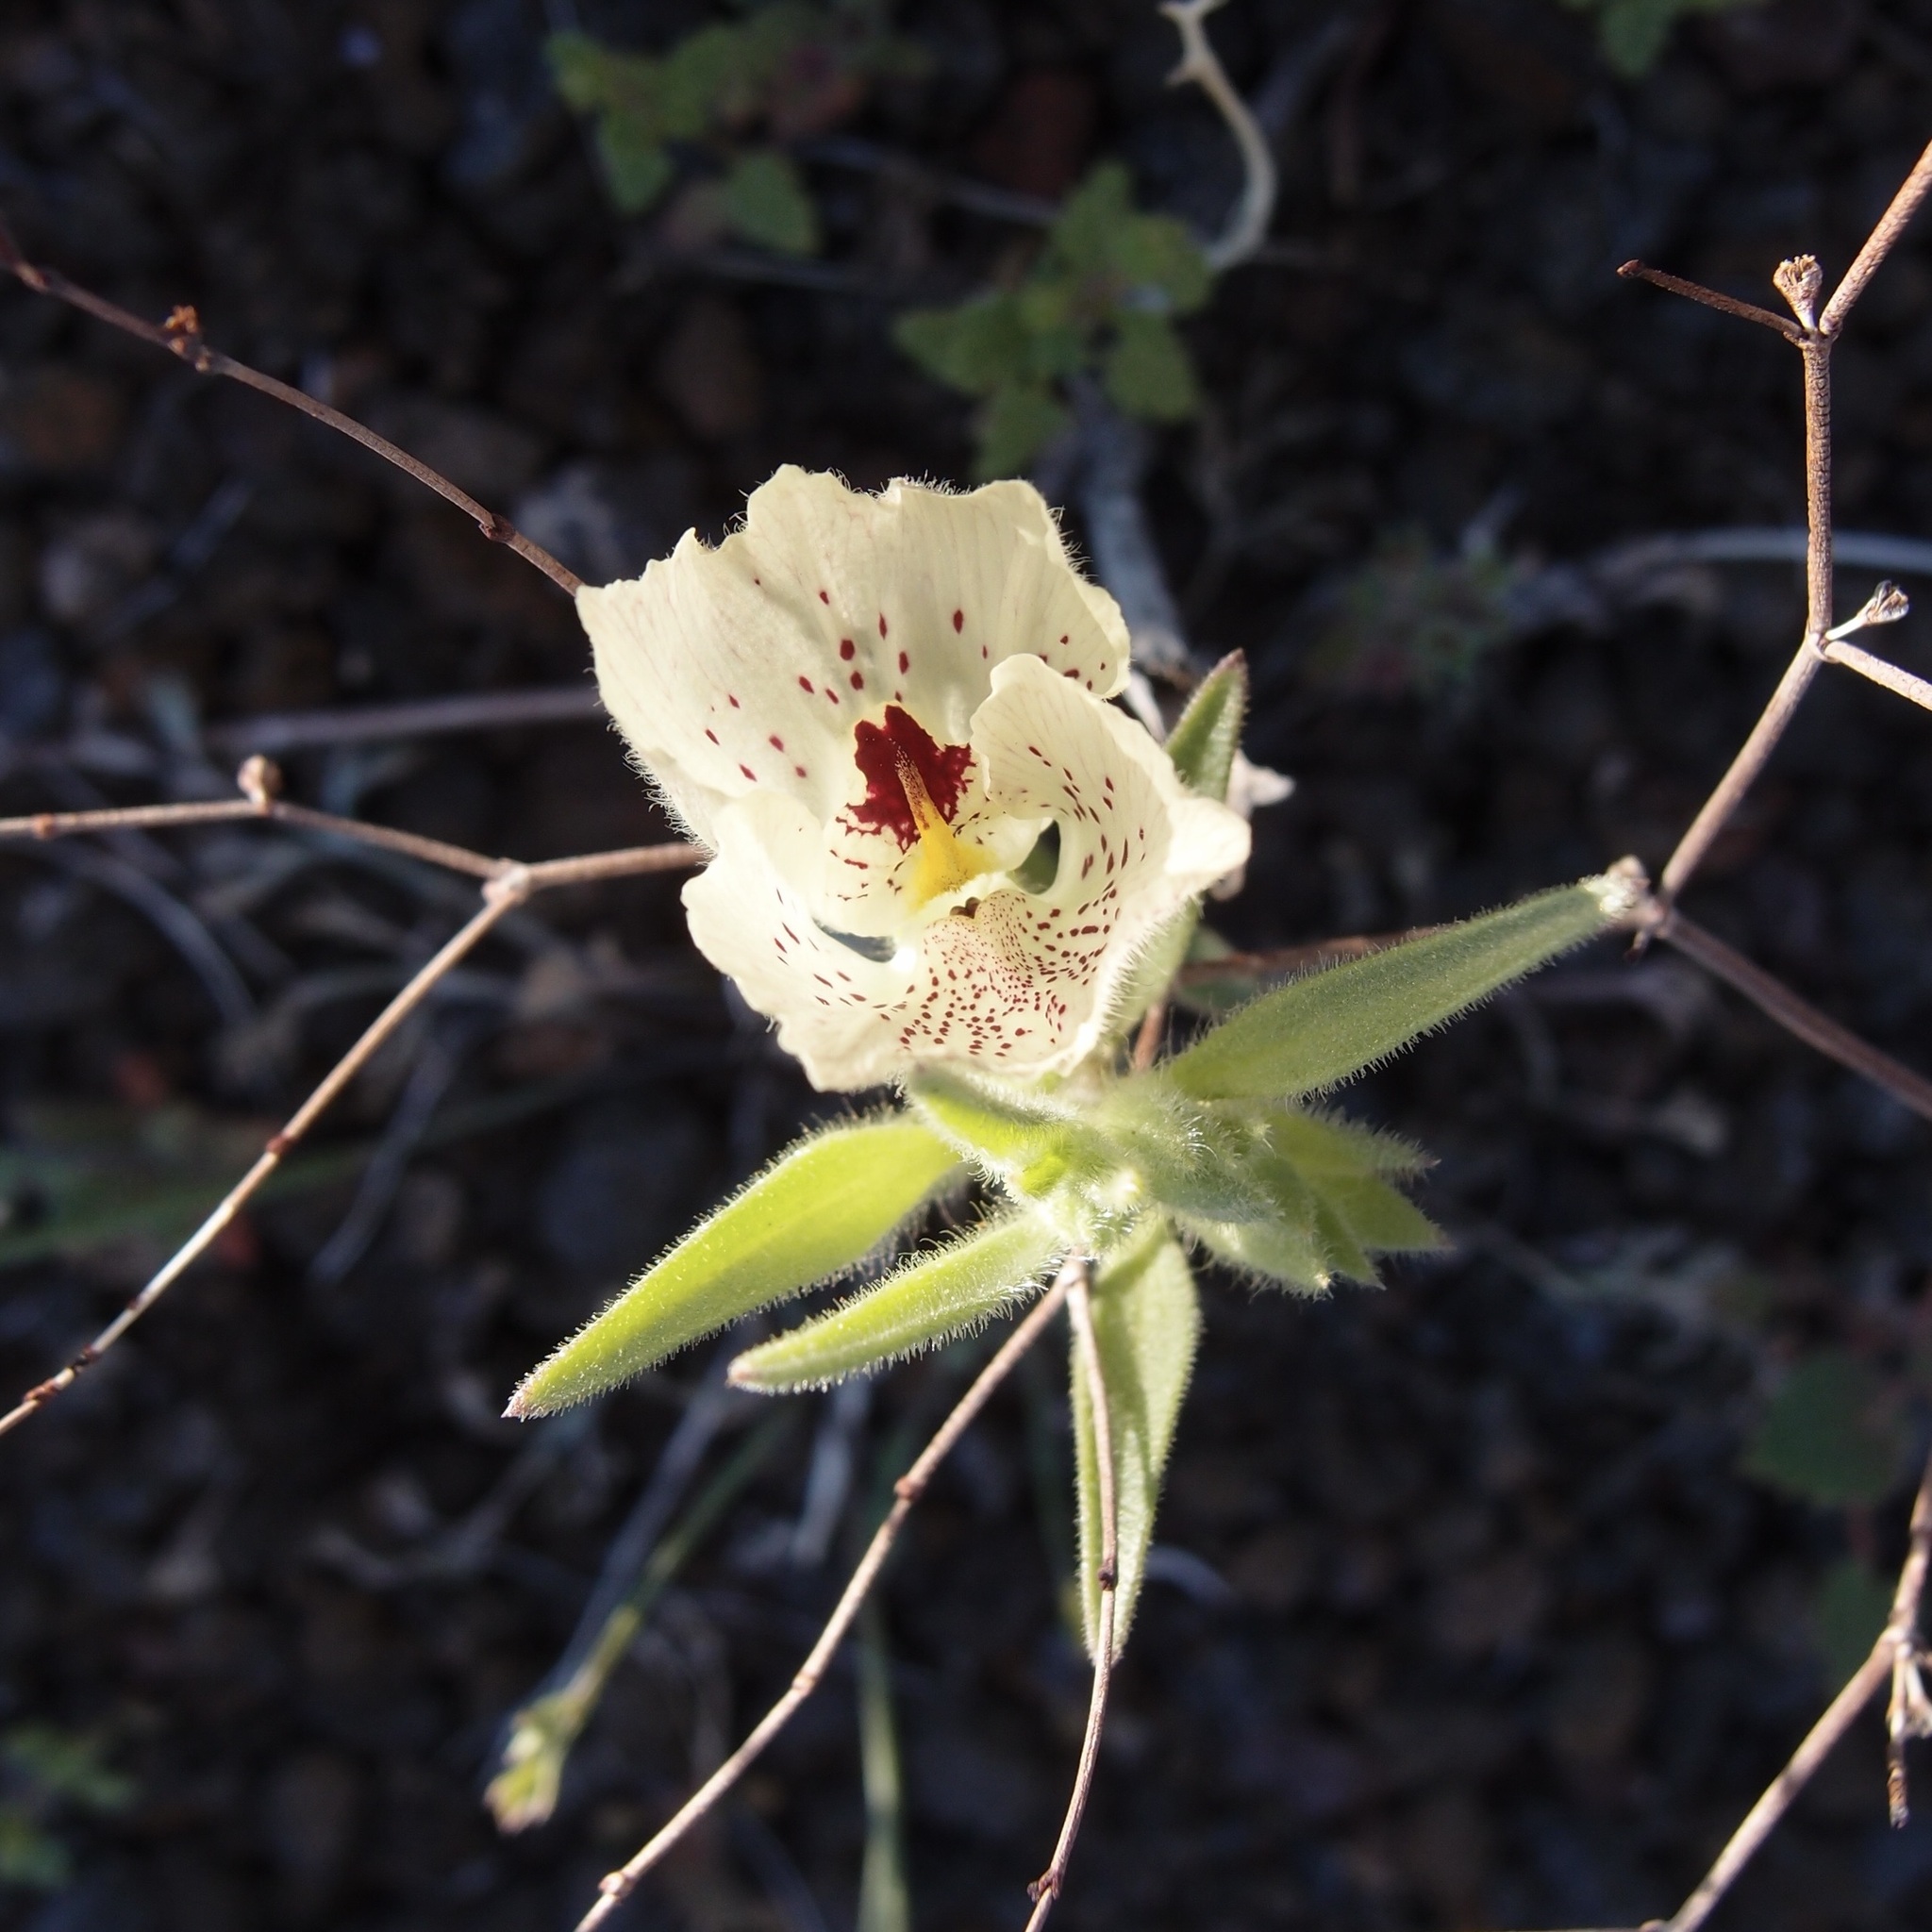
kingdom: Plantae
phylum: Tracheophyta
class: Magnoliopsida
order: Lamiales
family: Plantaginaceae
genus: Mohavea
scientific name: Mohavea confertiflora
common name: Ghost flower
